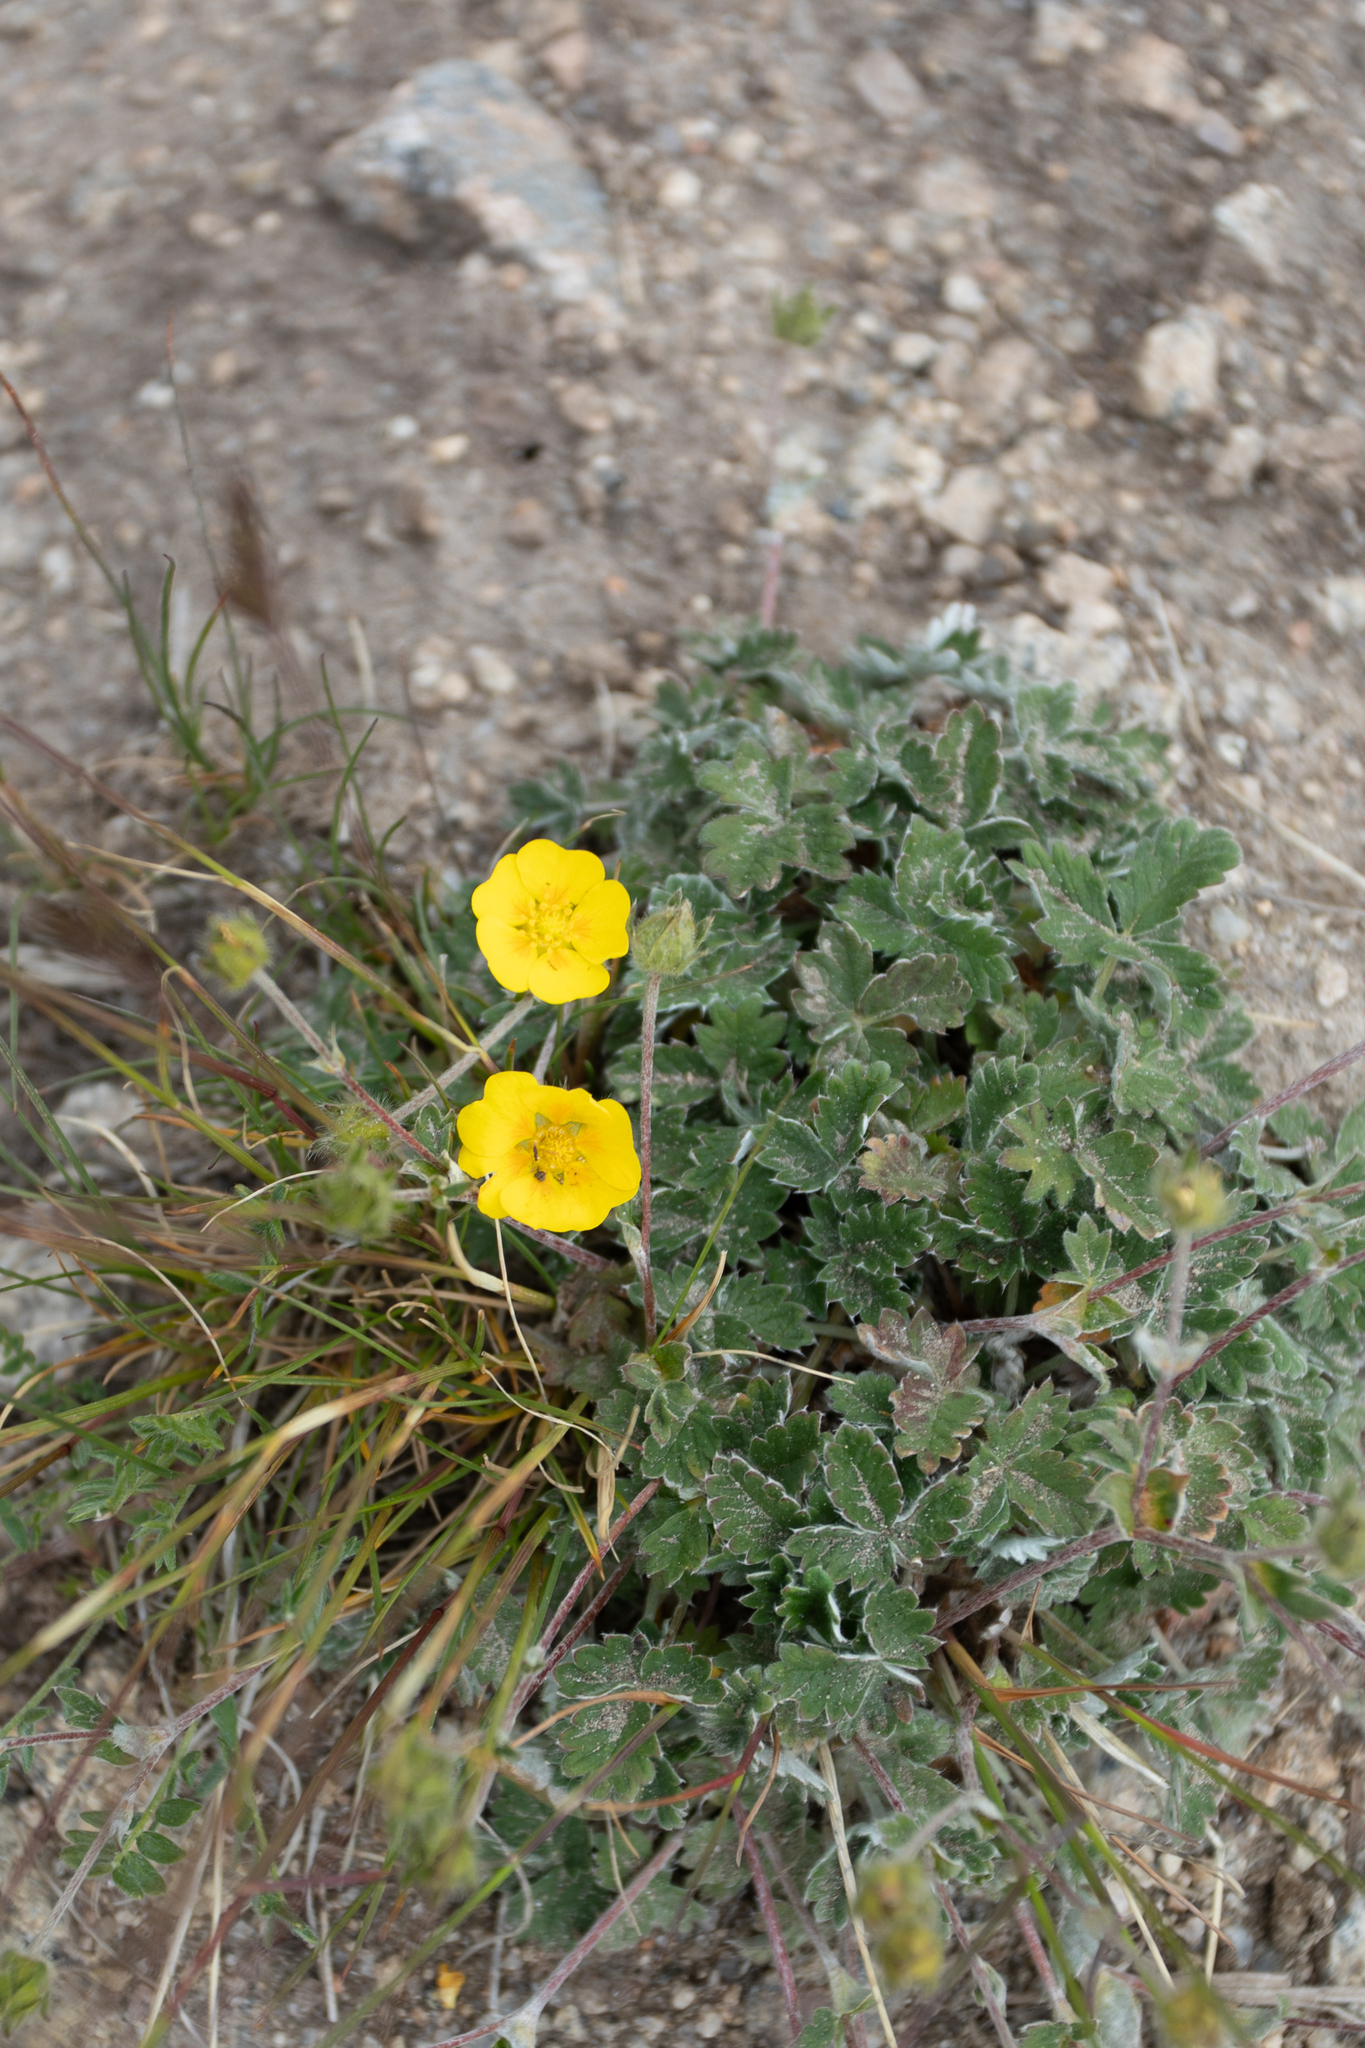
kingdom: Plantae
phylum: Tracheophyta
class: Magnoliopsida
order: Rosales
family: Rosaceae
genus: Potentilla
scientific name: Potentilla nivea
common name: Snow cinquefoil
